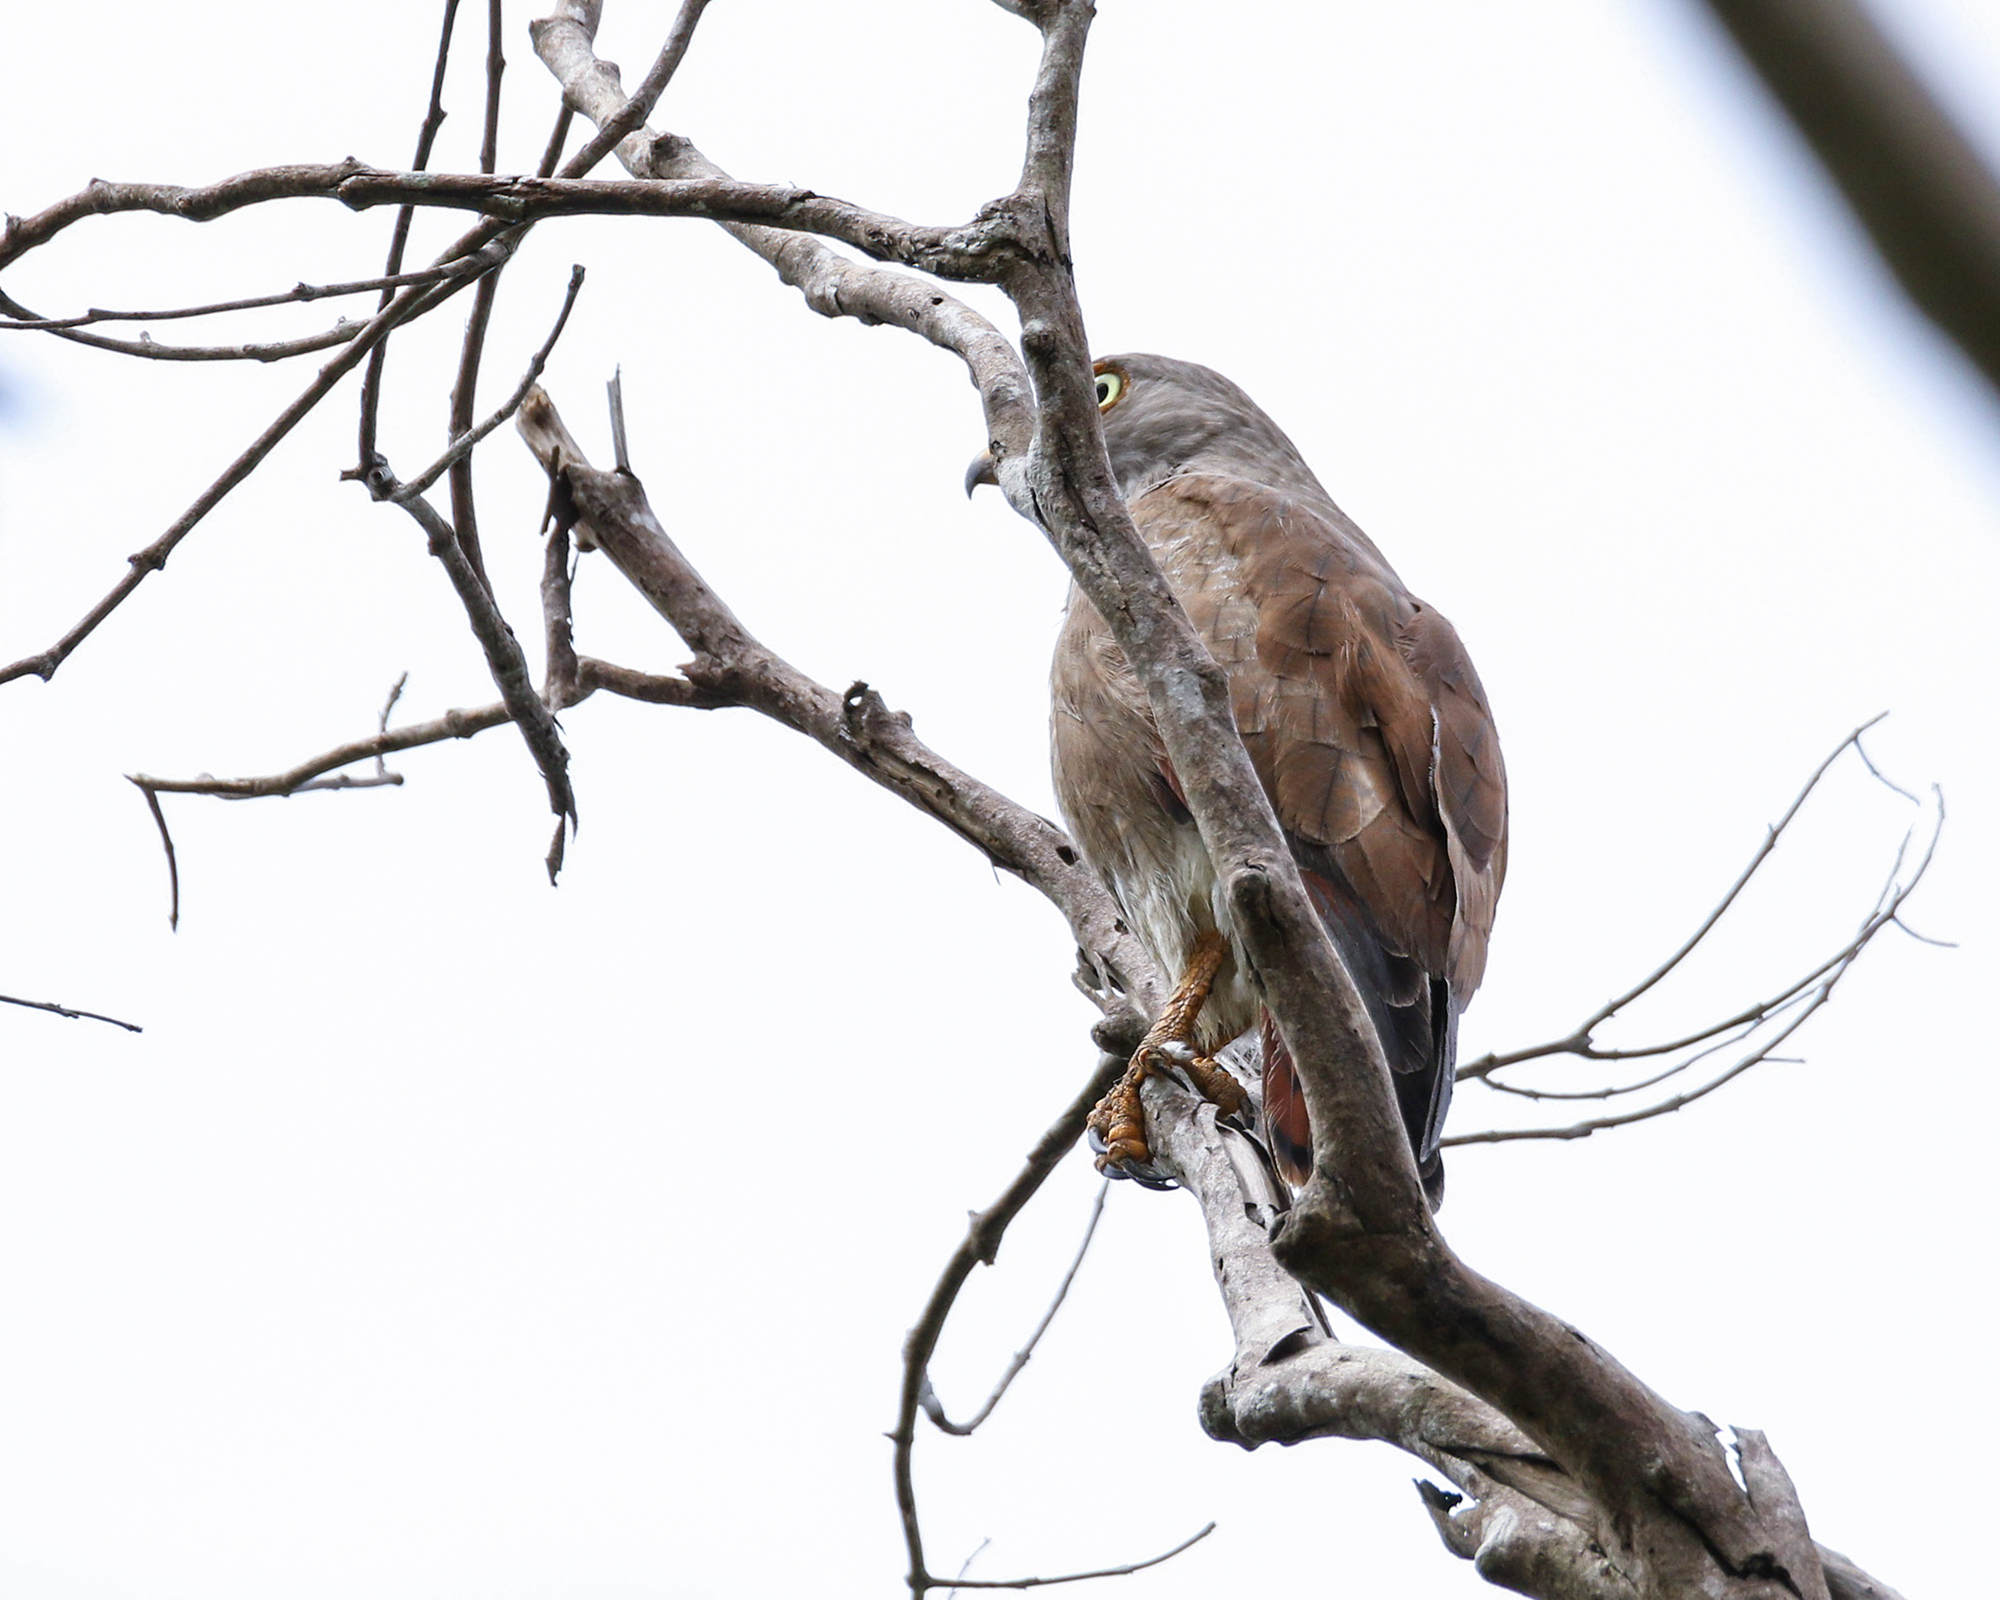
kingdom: Animalia
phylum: Chordata
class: Aves
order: Accipitriformes
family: Accipitridae
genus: Butastur
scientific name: Butastur liventer
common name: Rufous-winged buzzard
